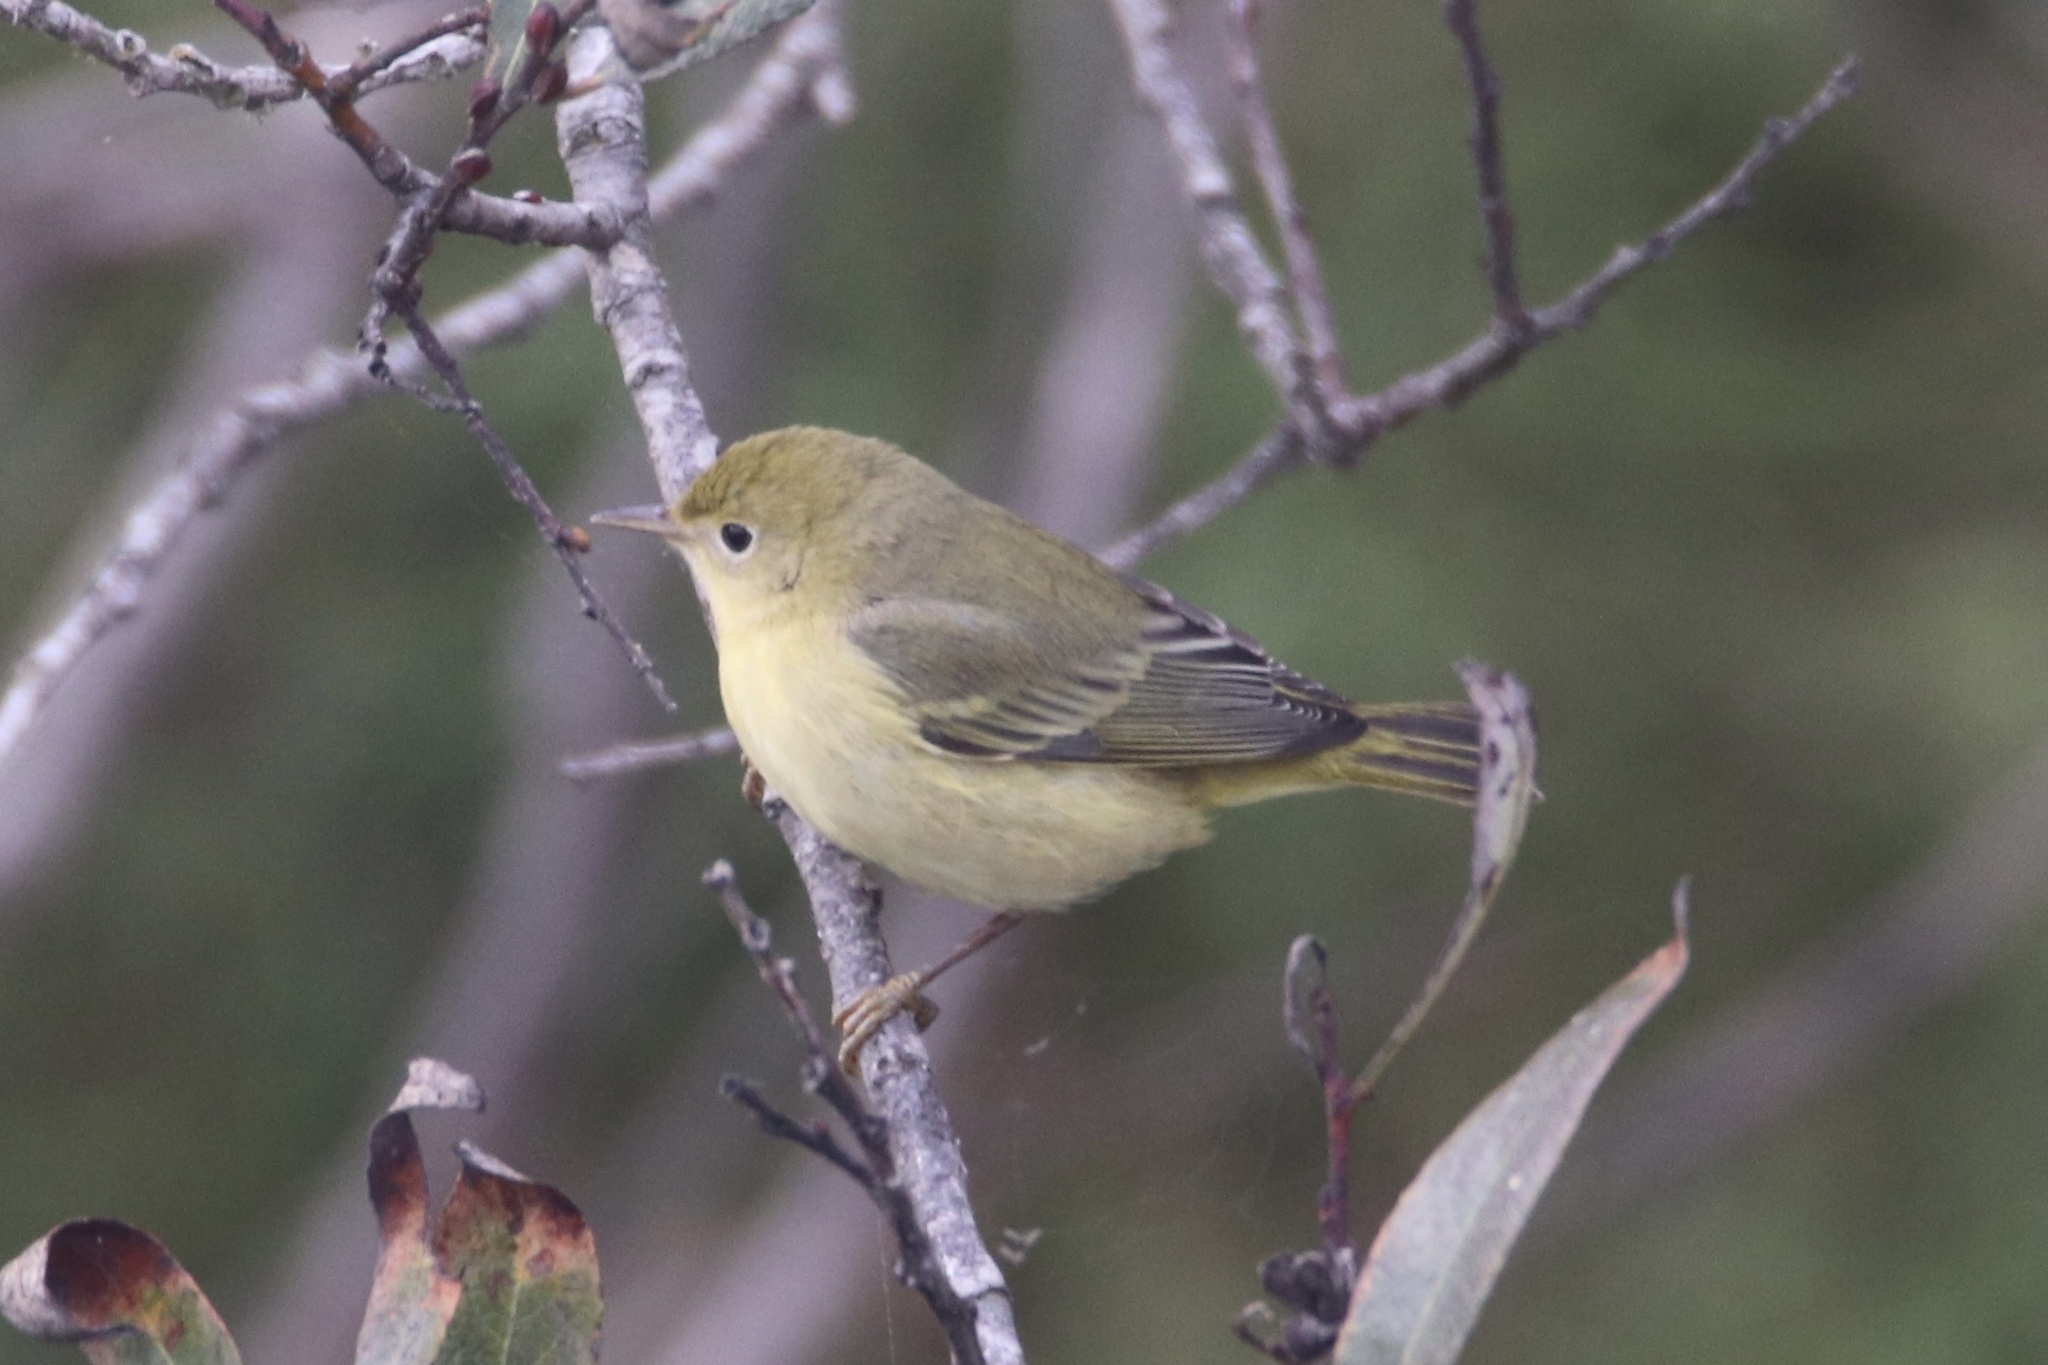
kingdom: Animalia
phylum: Chordata
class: Aves
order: Passeriformes
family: Parulidae
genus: Setophaga
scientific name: Setophaga petechia
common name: Yellow warbler
